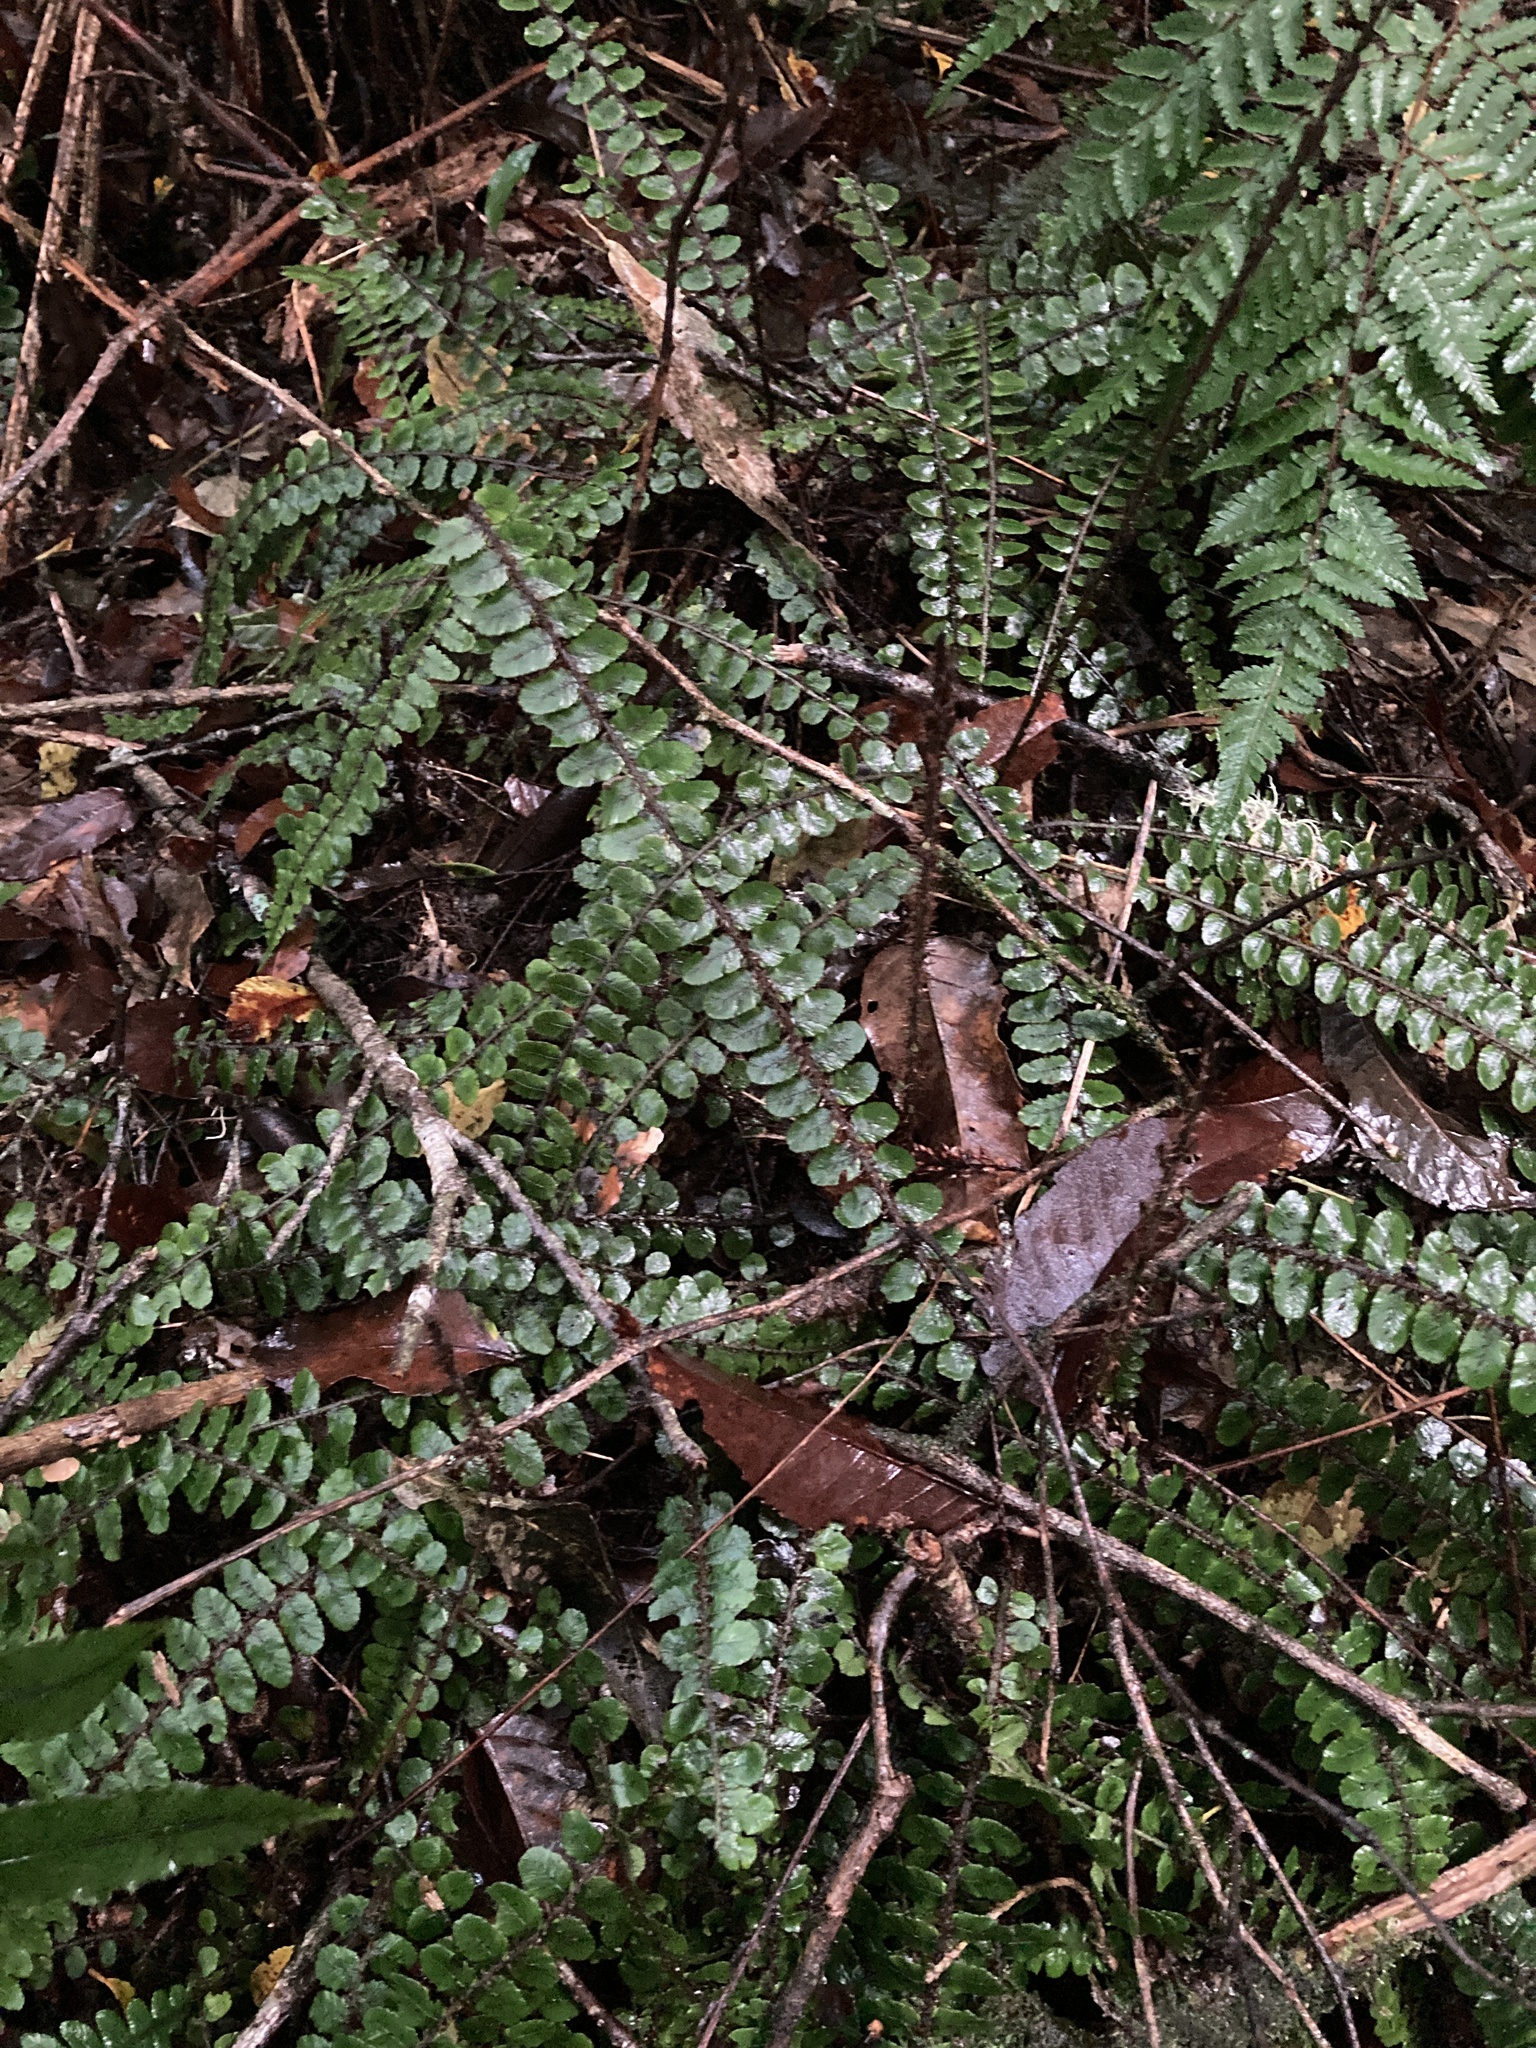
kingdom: Plantae
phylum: Tracheophyta
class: Polypodiopsida
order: Polypodiales
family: Blechnaceae
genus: Cranfillia
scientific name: Cranfillia fluviatilis
